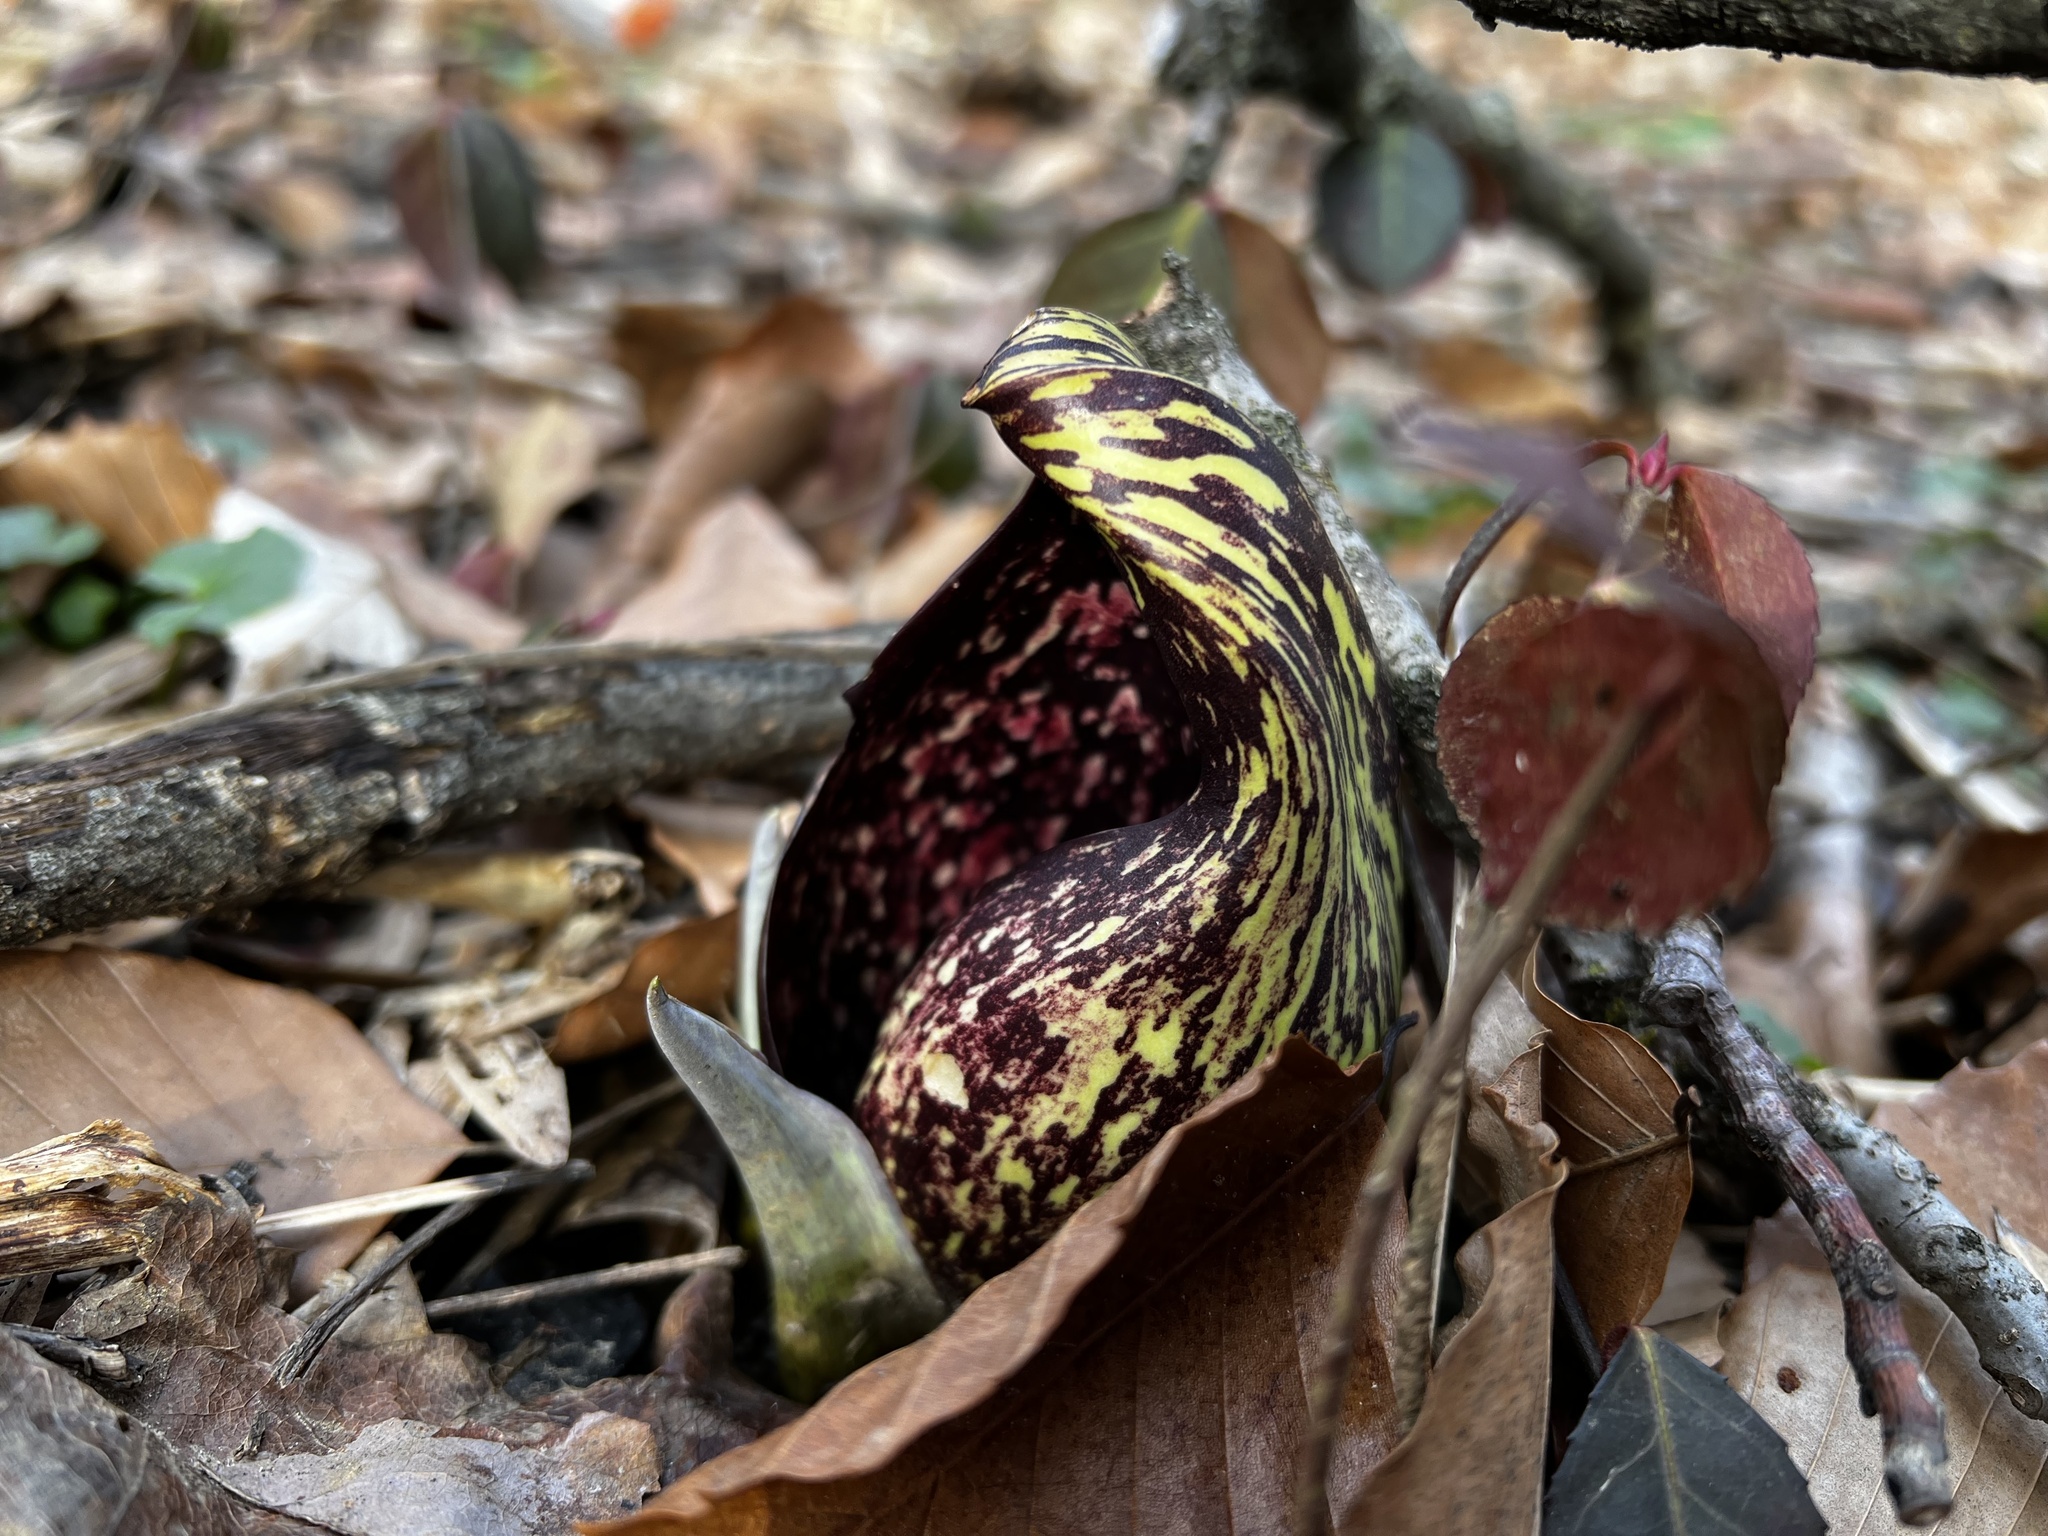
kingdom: Plantae
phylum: Tracheophyta
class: Liliopsida
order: Alismatales
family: Araceae
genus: Symplocarpus
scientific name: Symplocarpus foetidus
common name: Eastern skunk cabbage
